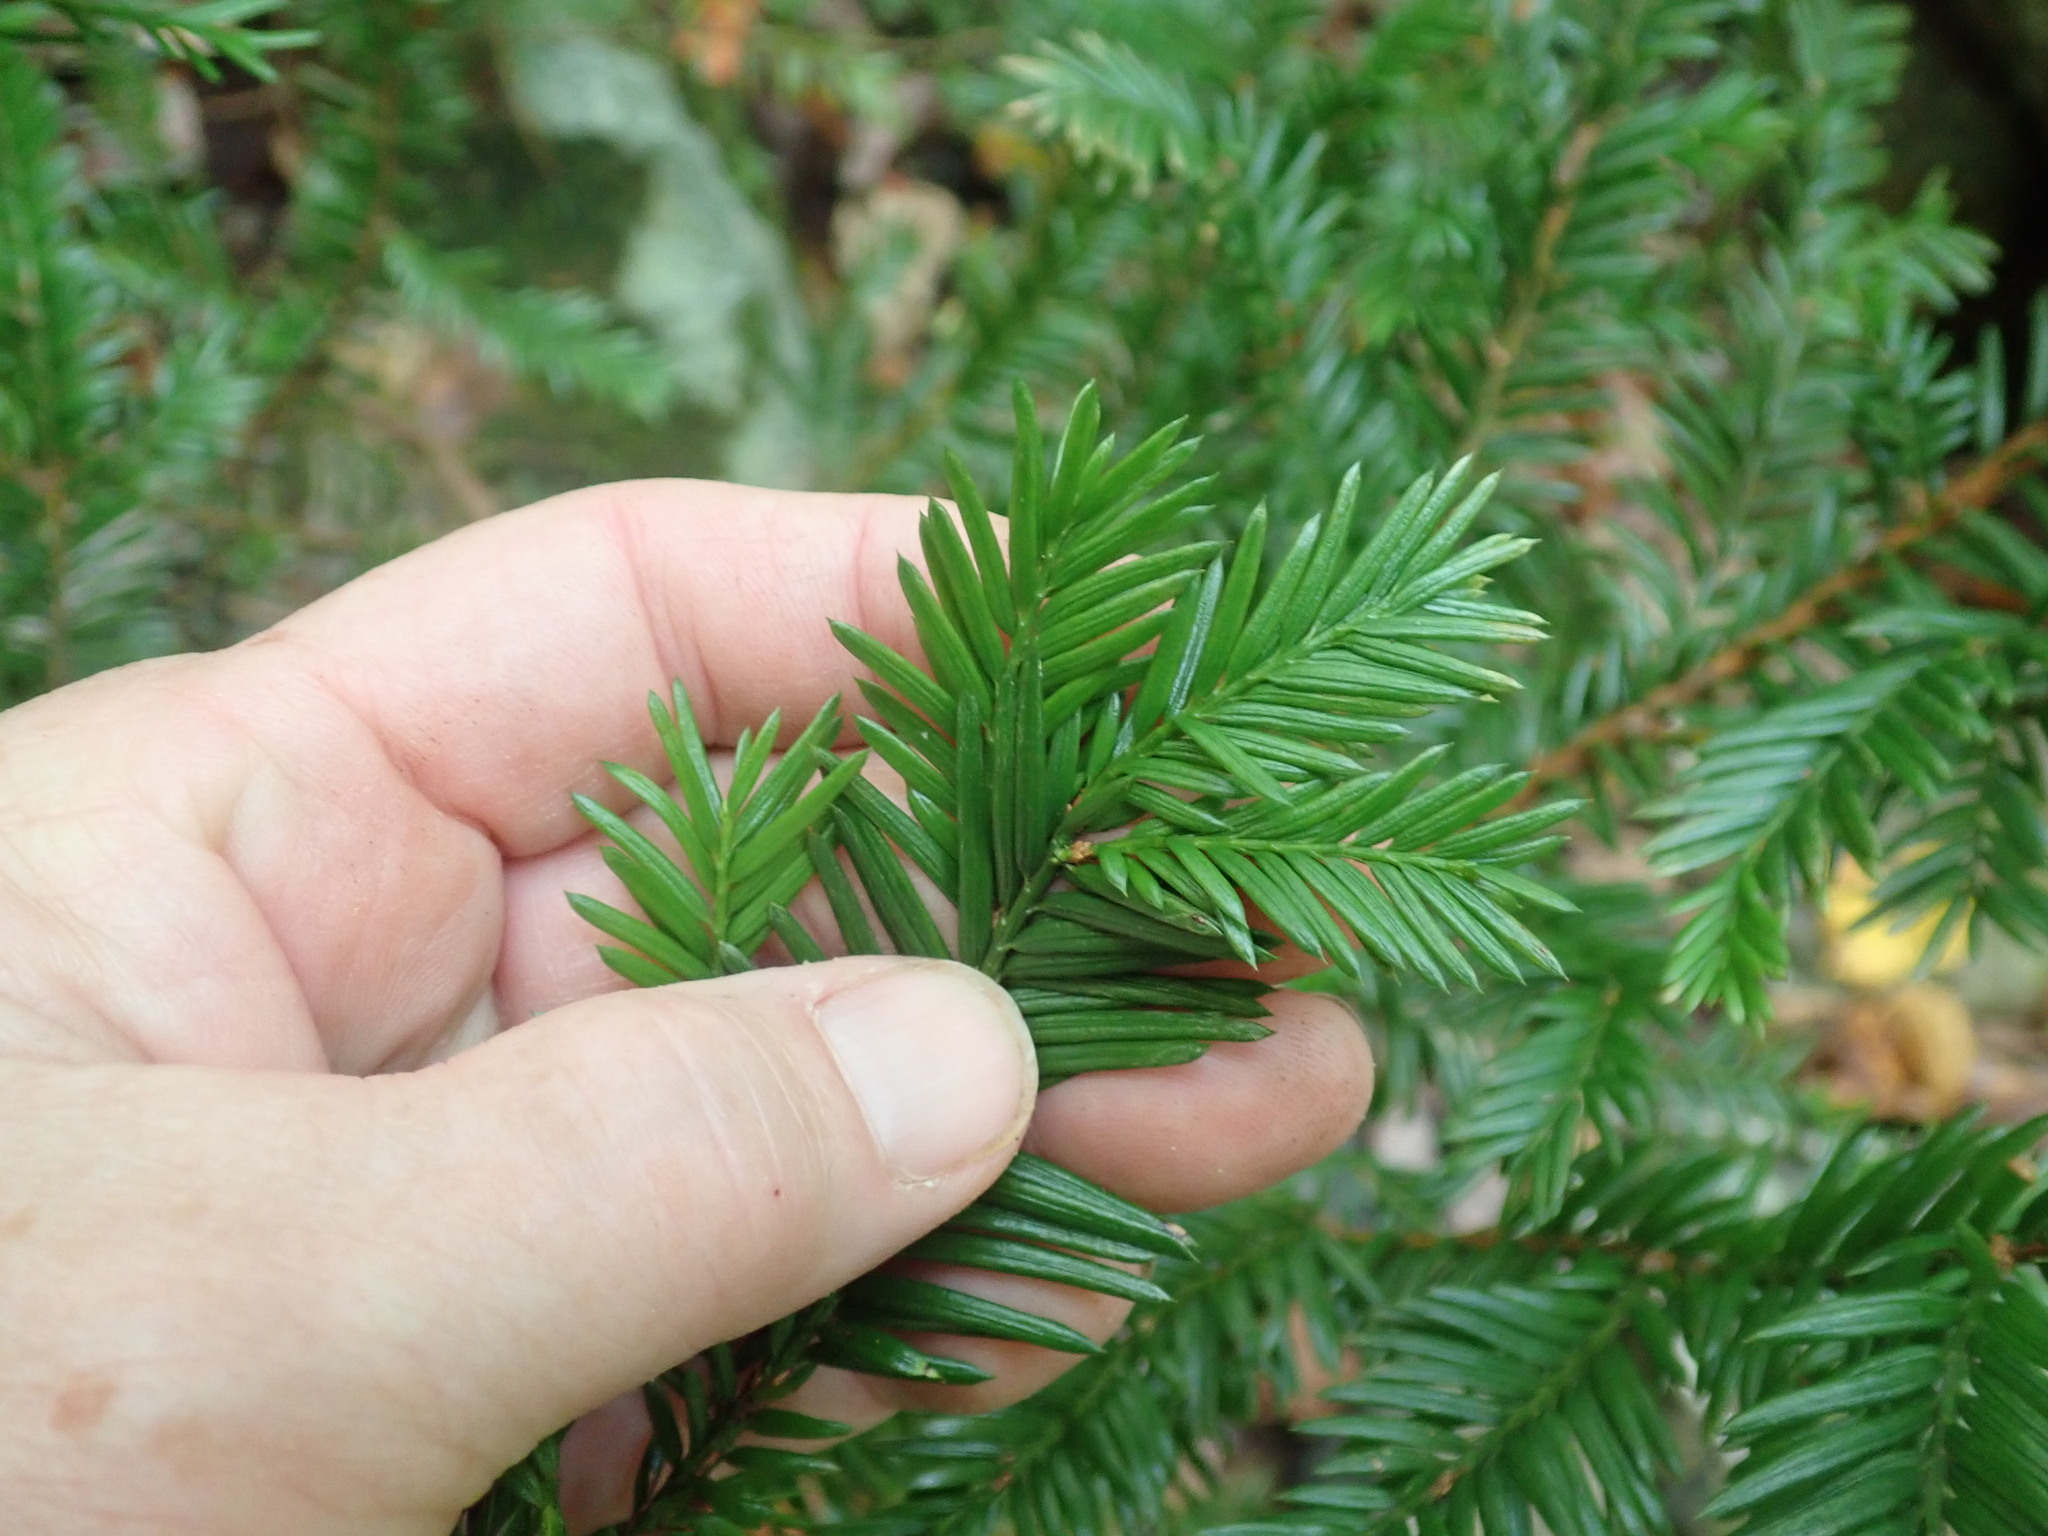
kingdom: Plantae
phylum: Tracheophyta
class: Pinopsida
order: Pinales
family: Taxaceae
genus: Taxus
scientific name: Taxus canadensis
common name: American yew
